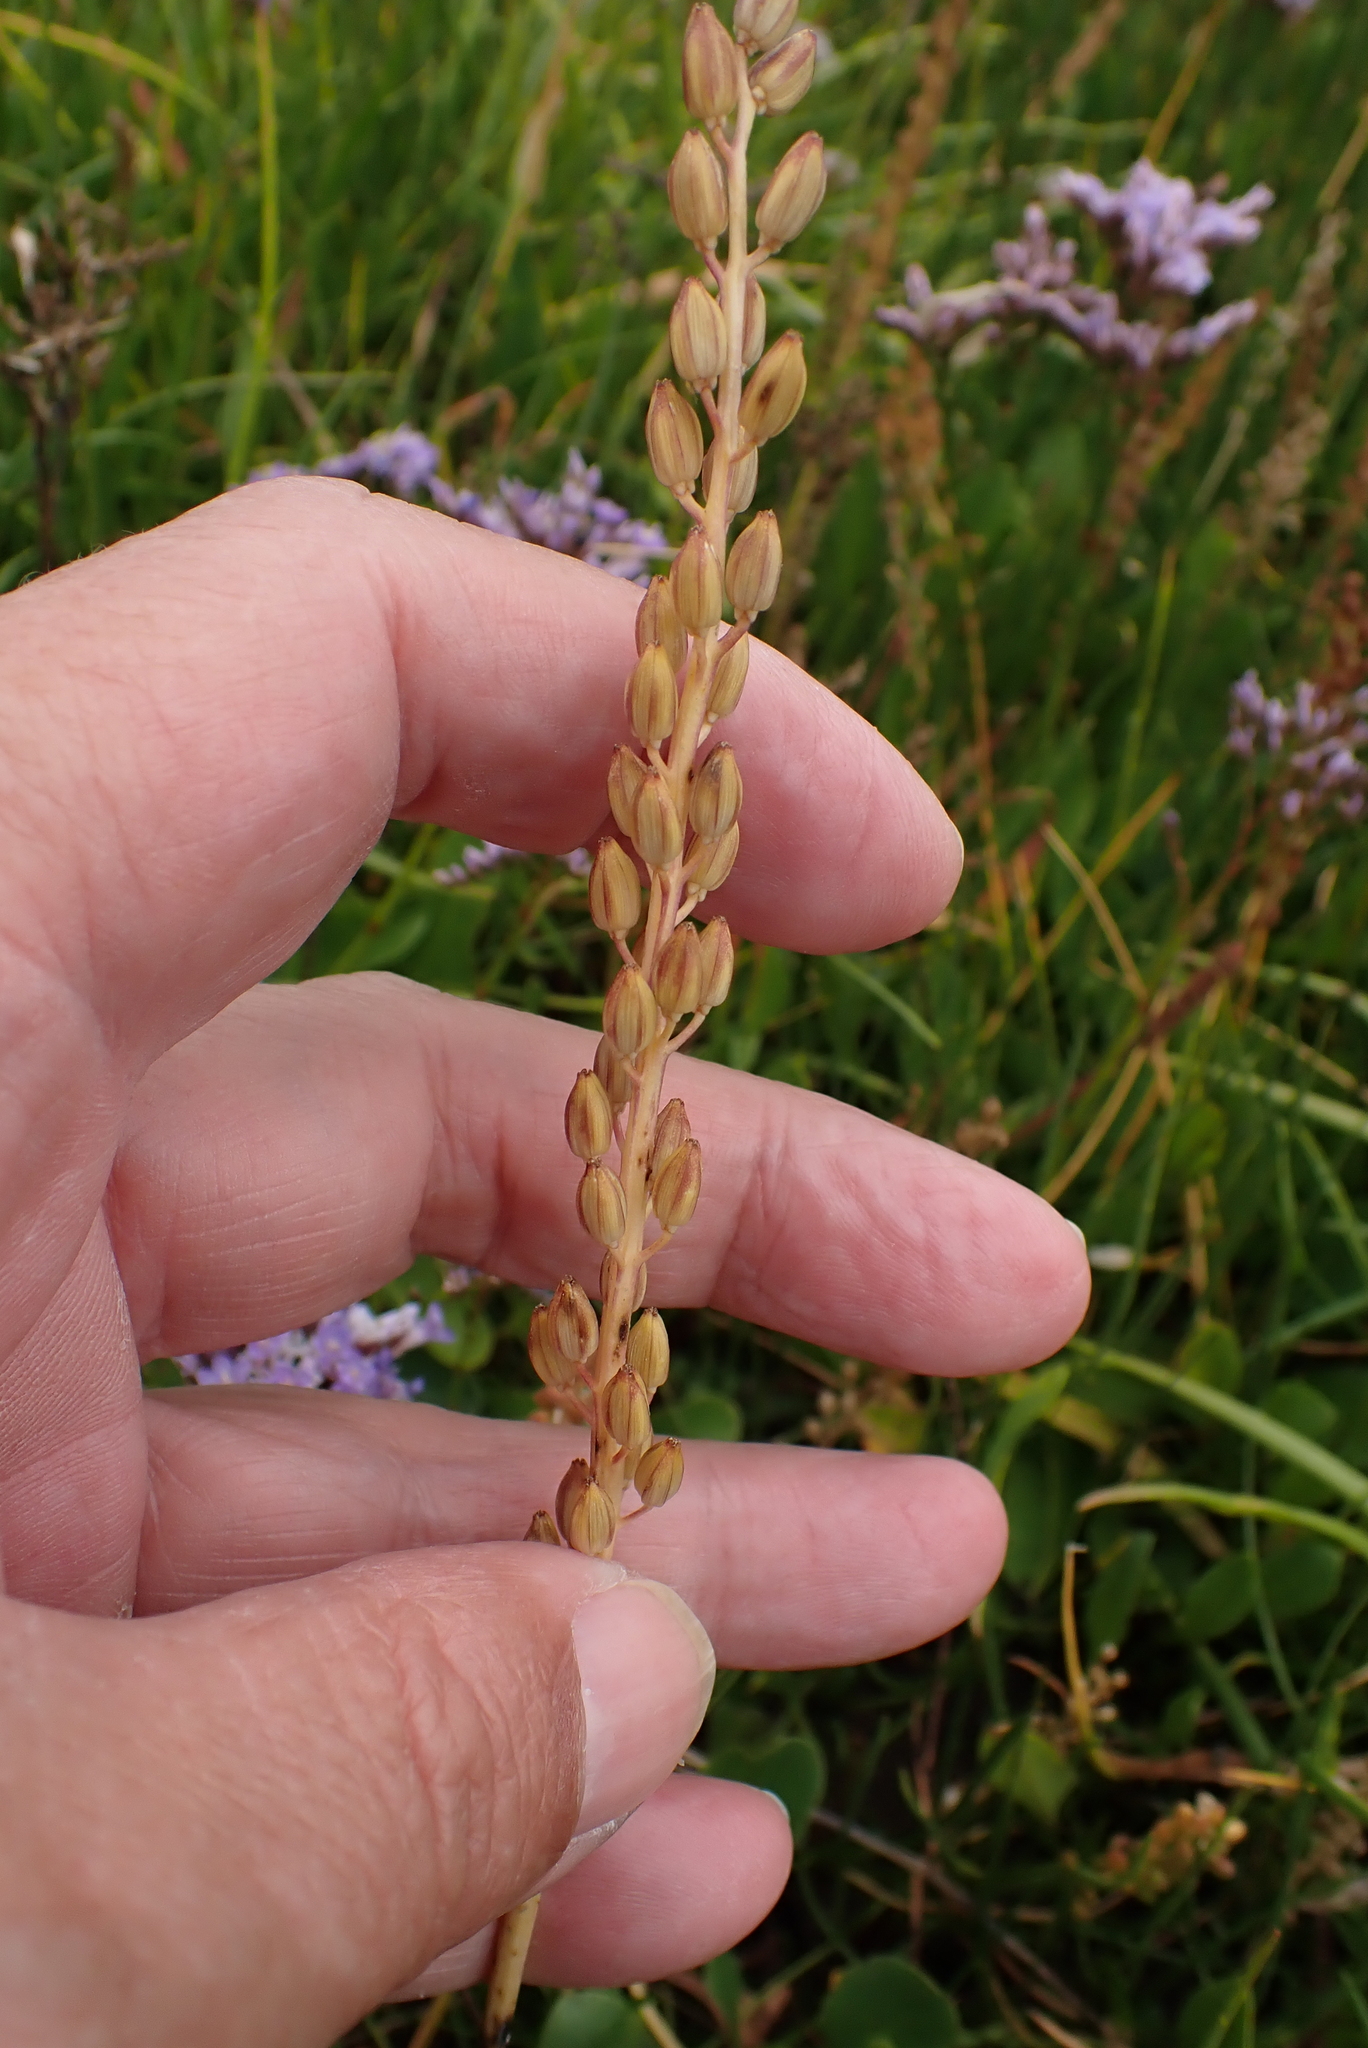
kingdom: Plantae
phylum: Tracheophyta
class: Liliopsida
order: Alismatales
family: Juncaginaceae
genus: Triglochin
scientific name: Triglochin maritima
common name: Sea arrowgrass
